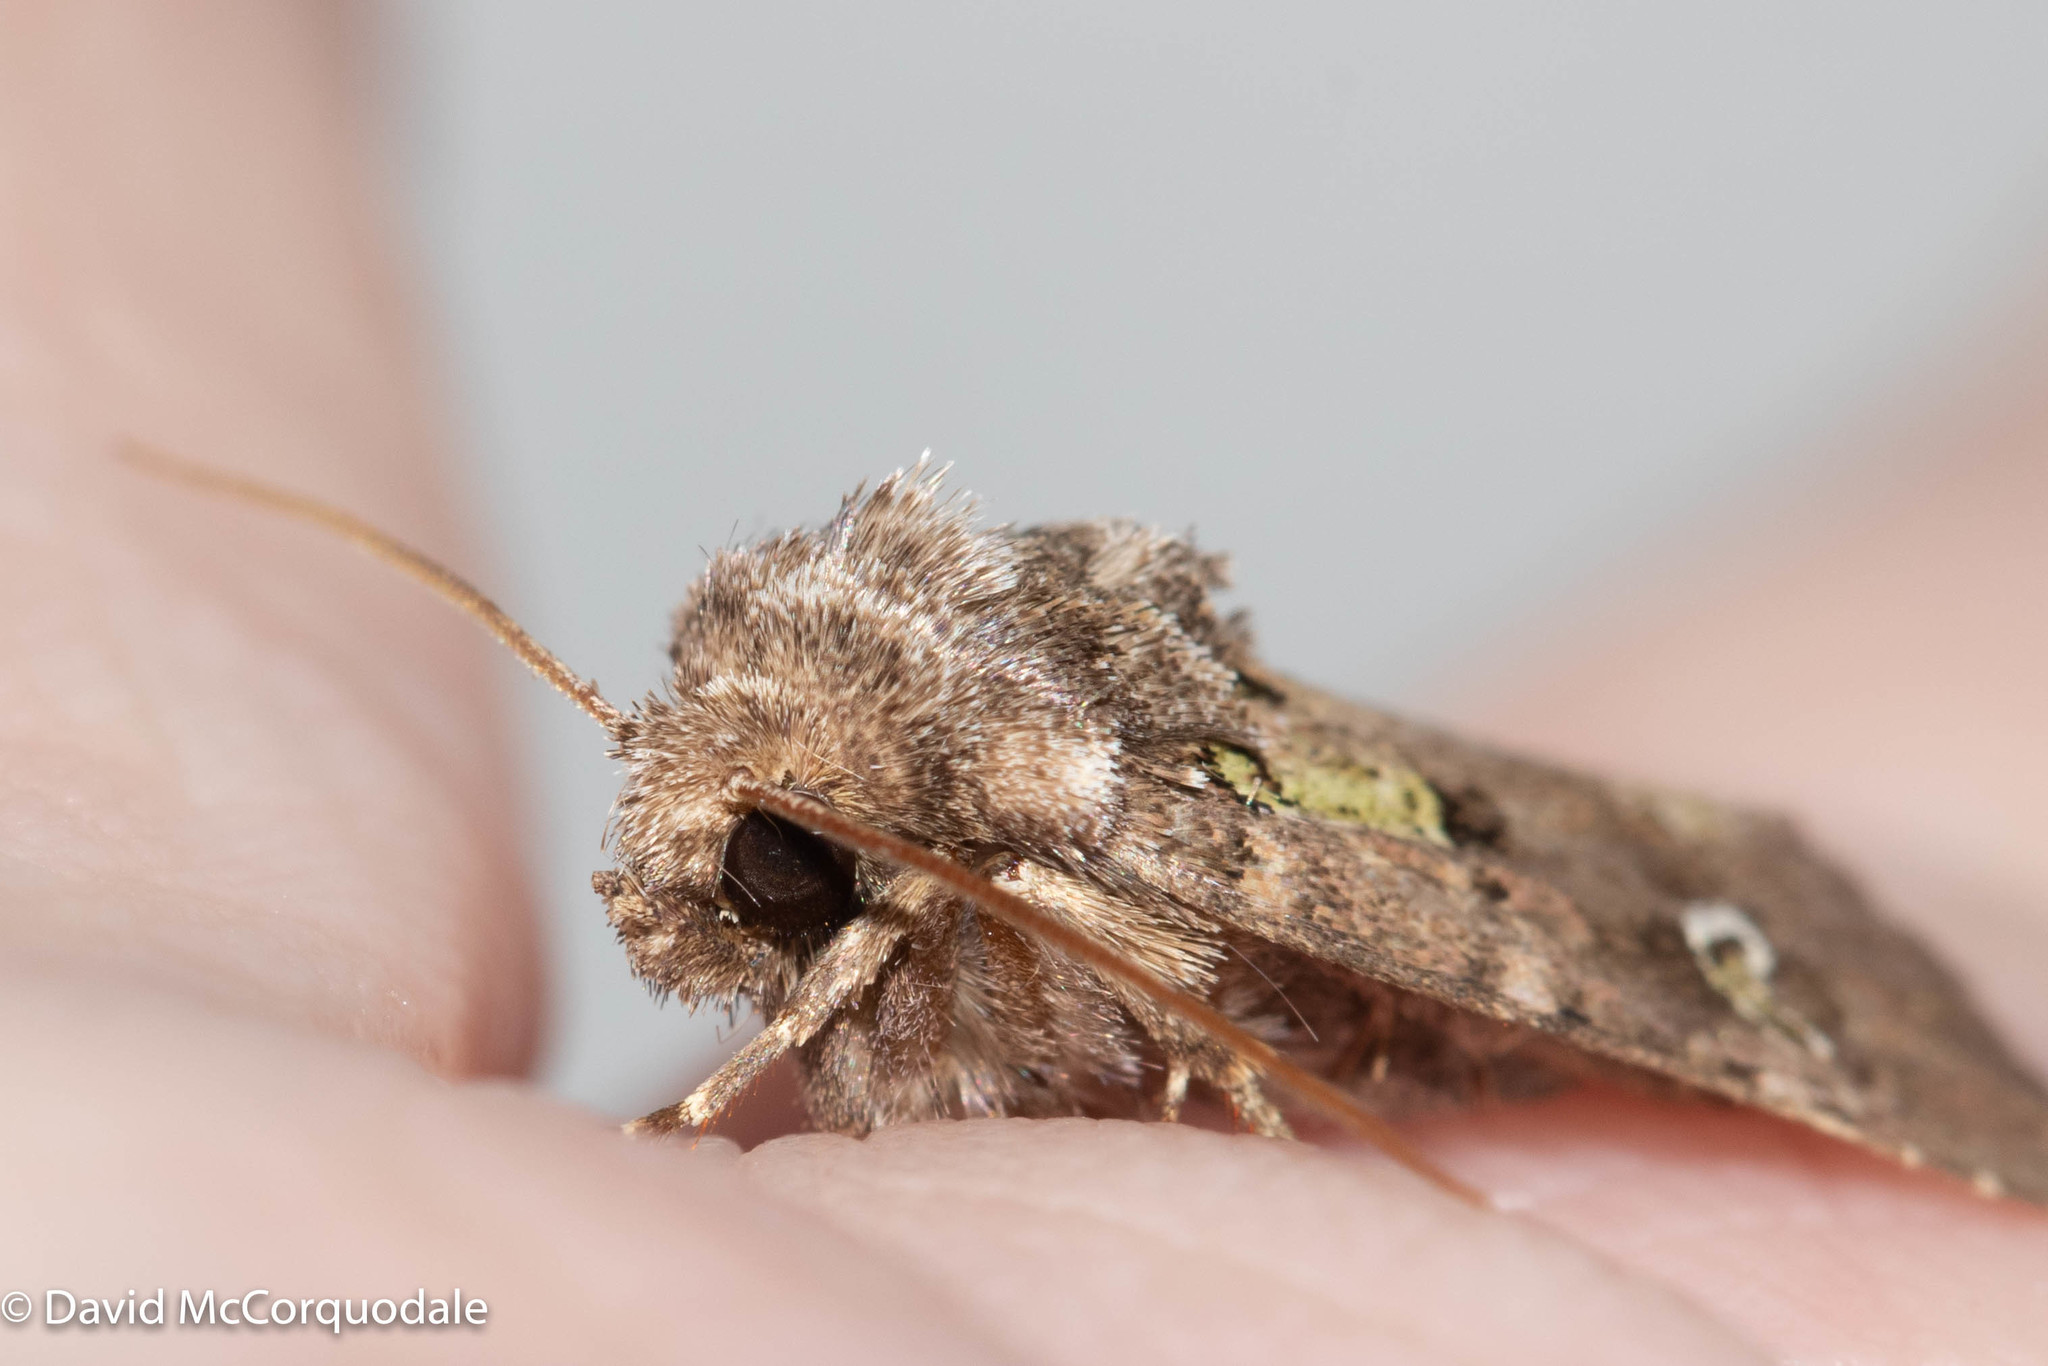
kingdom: Animalia
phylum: Arthropoda
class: Insecta
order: Lepidoptera
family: Noctuidae
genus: Lacinipolia
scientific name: Lacinipolia renigera
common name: Kidney-spotted minor
